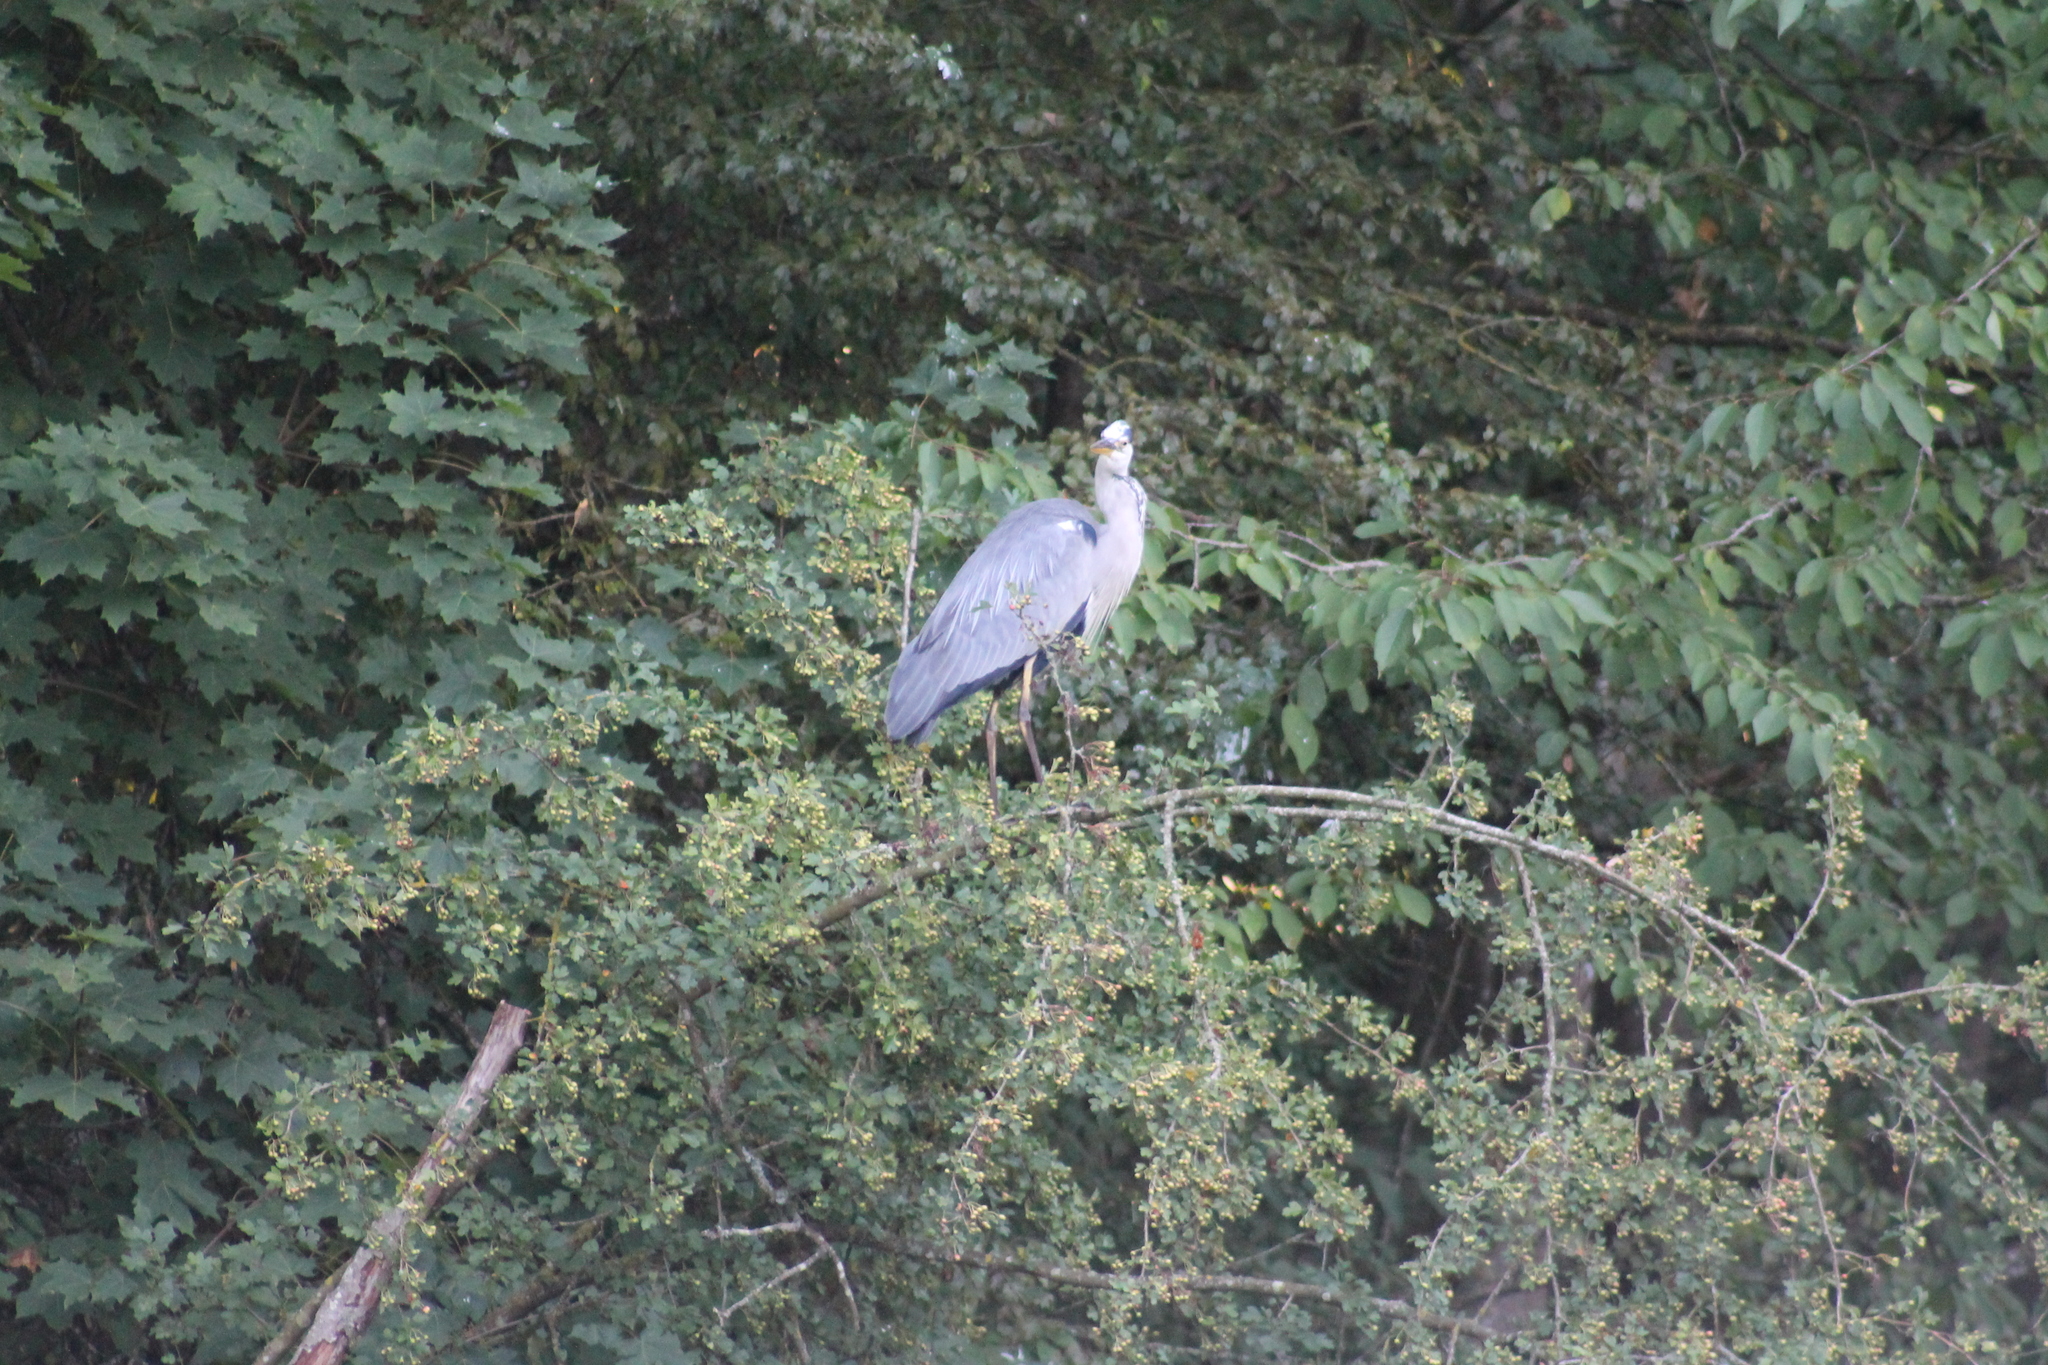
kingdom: Animalia
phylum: Chordata
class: Aves
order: Pelecaniformes
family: Ardeidae
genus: Ardea
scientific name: Ardea cinerea
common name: Grey heron
